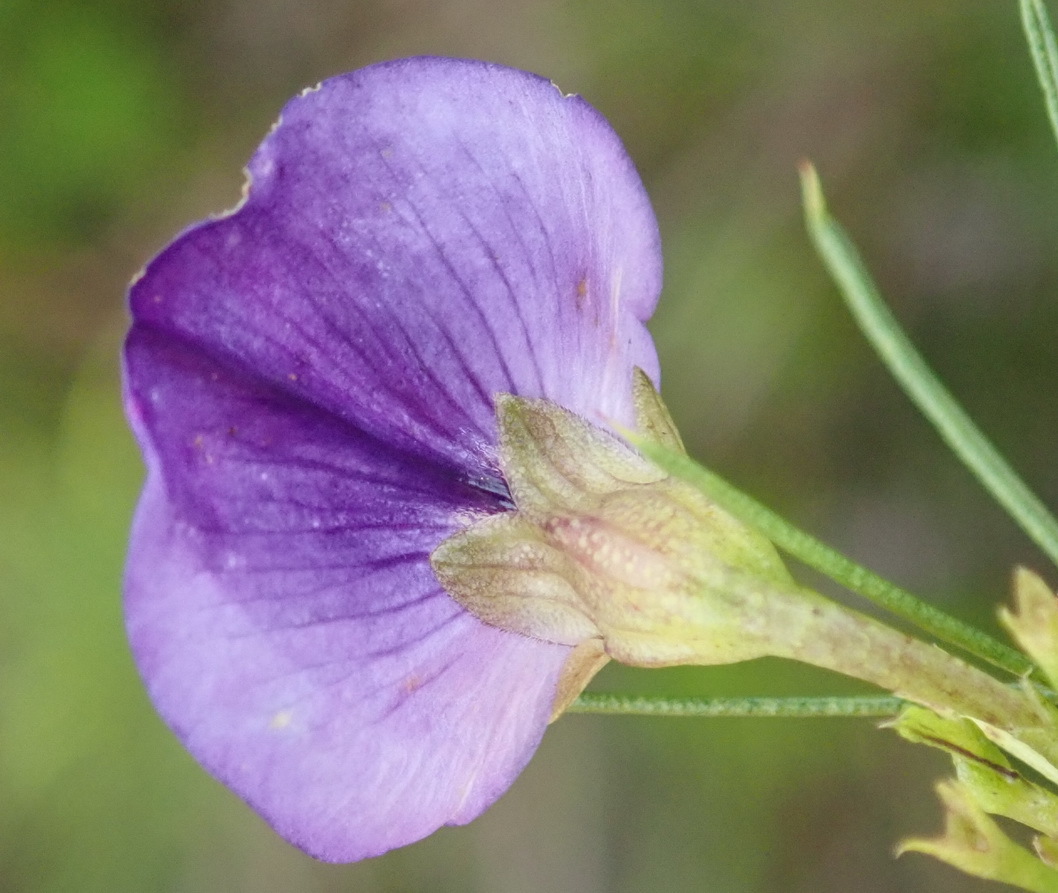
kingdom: Plantae
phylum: Tracheophyta
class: Magnoliopsida
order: Fabales
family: Fabaceae
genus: Psoralea
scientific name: Psoralea laevigata
